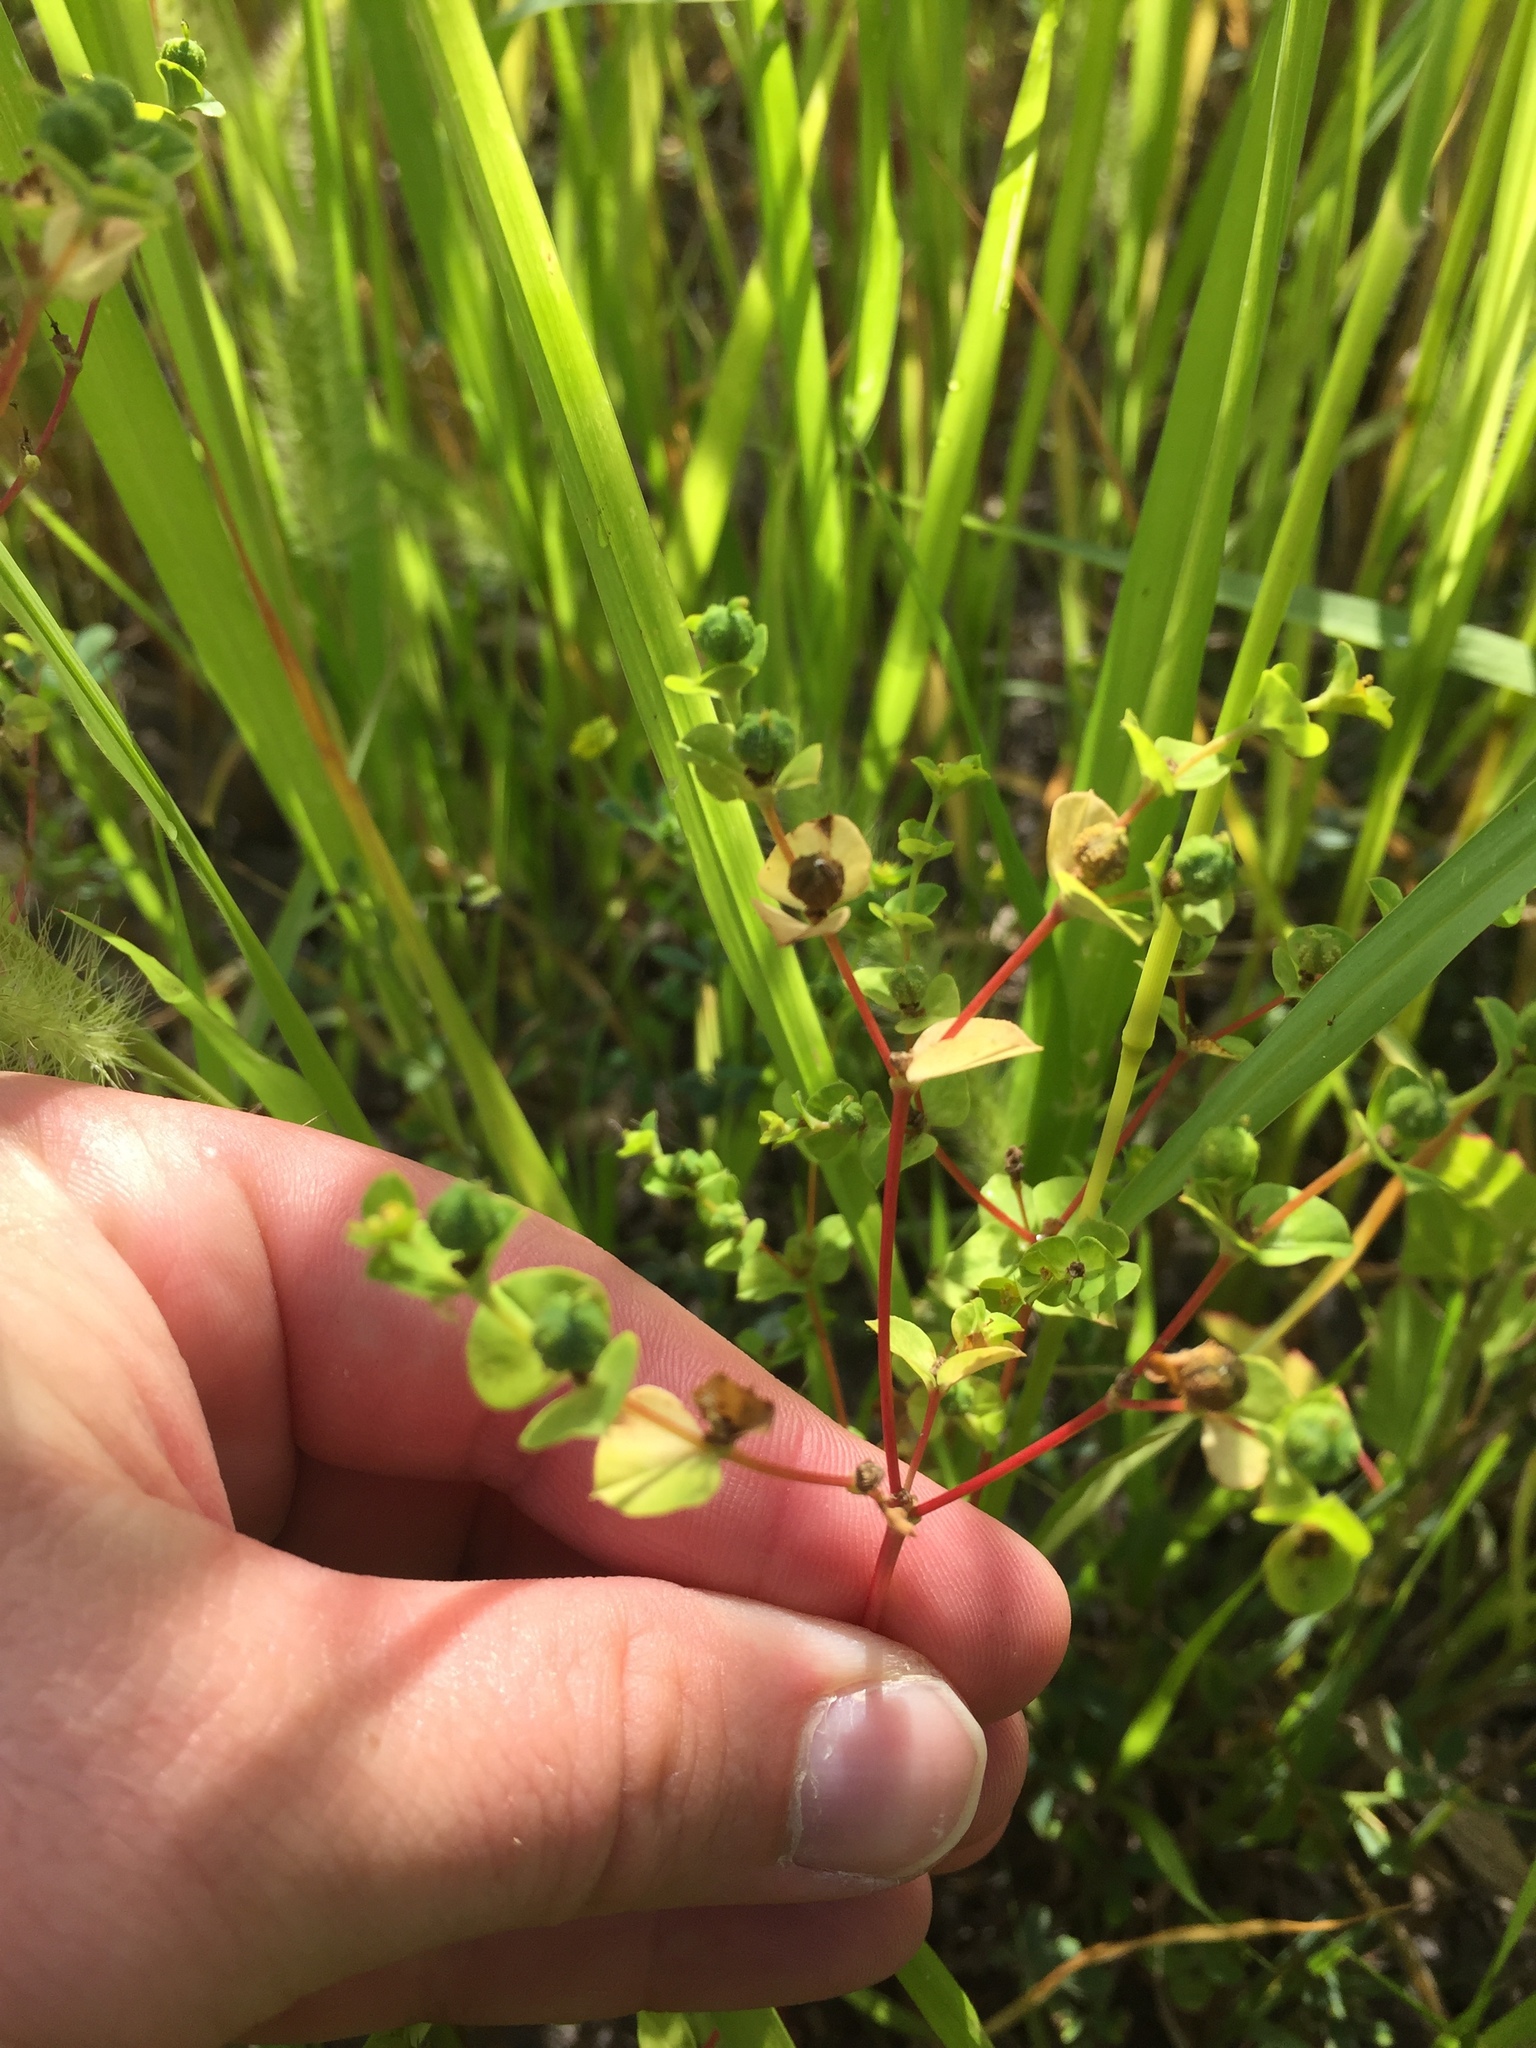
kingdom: Plantae
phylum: Tracheophyta
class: Magnoliopsida
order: Malpighiales
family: Euphorbiaceae
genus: Euphorbia
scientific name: Euphorbia spathulata
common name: Blunt spurge
